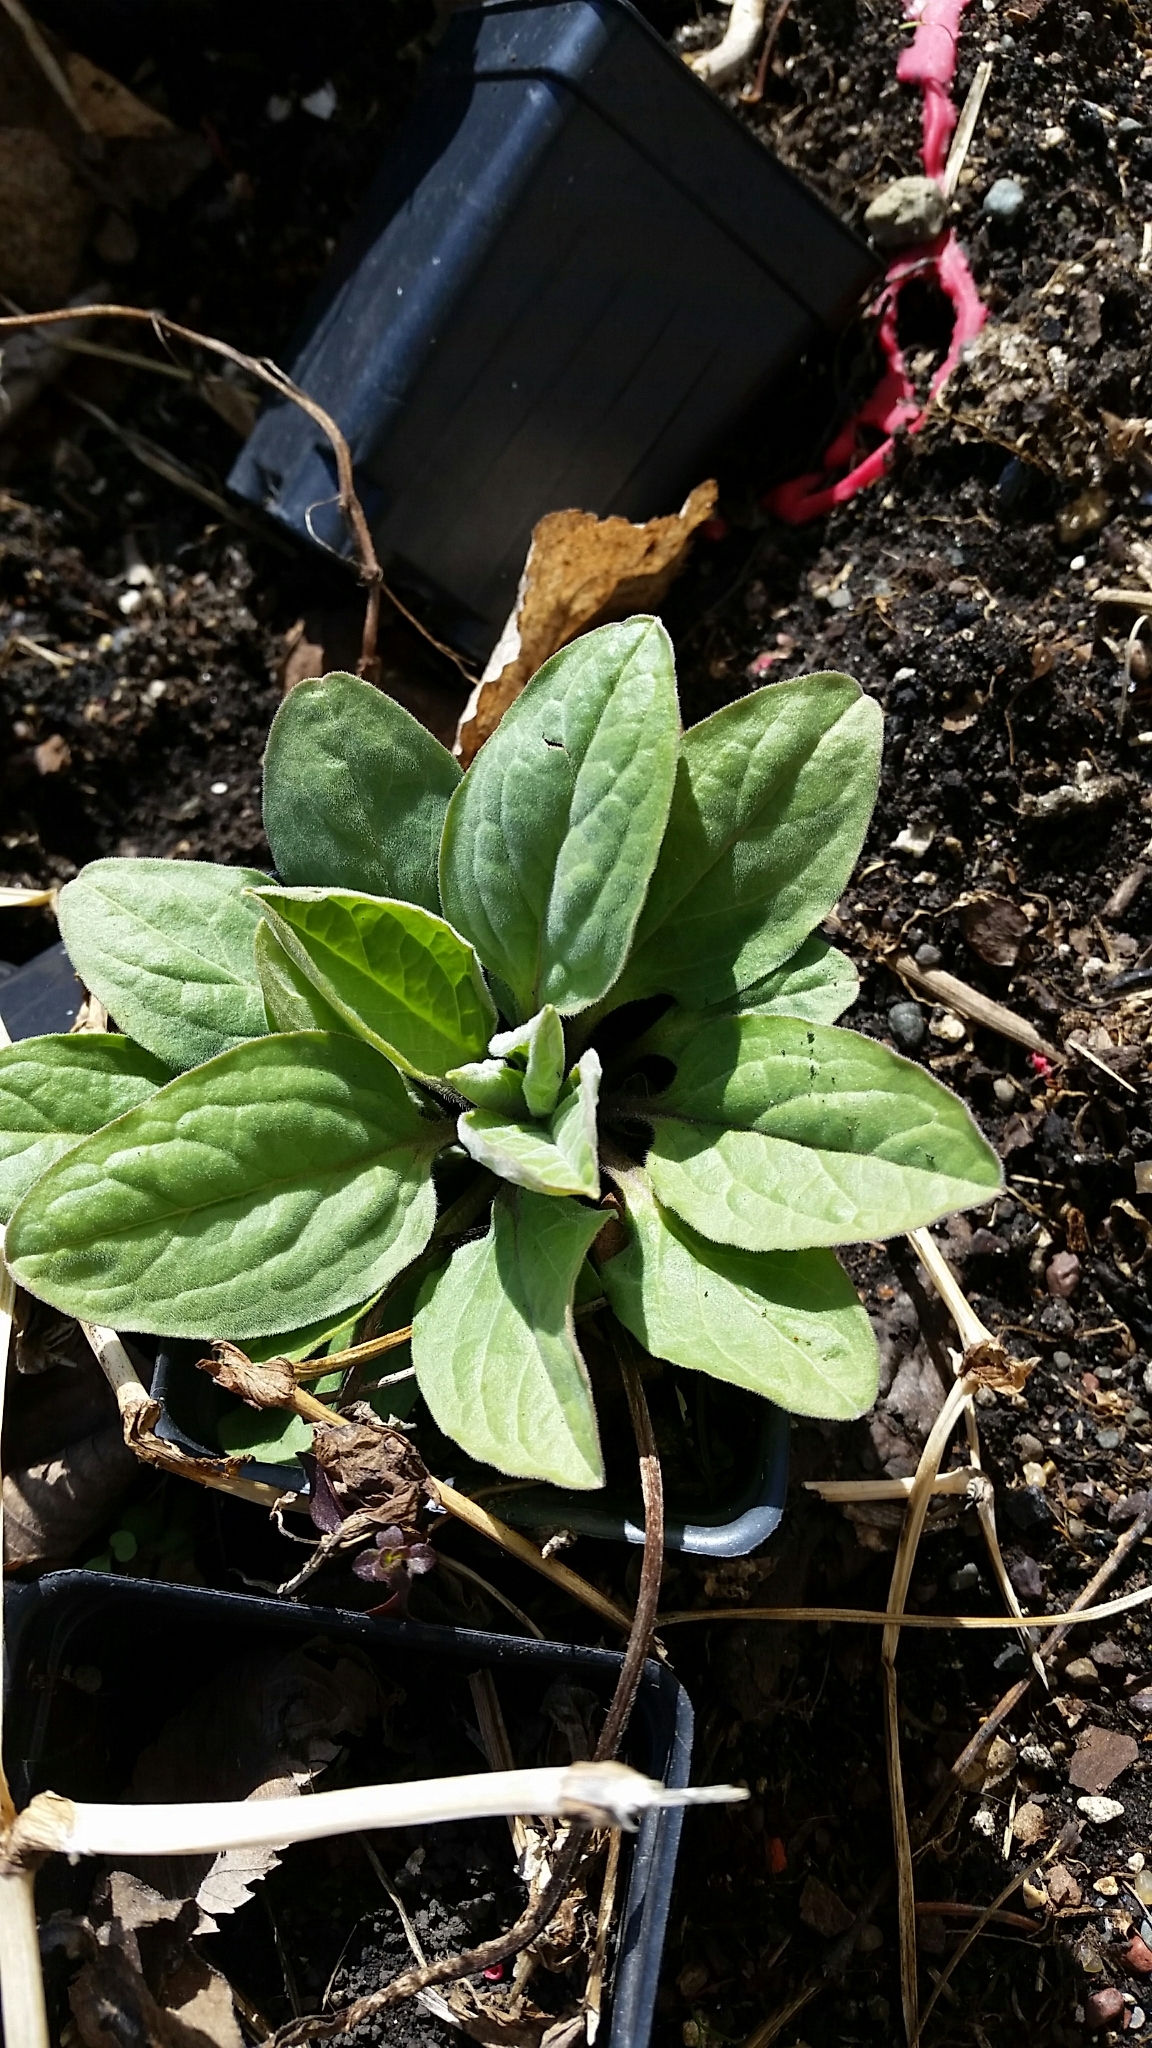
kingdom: Plantae
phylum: Tracheophyta
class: Magnoliopsida
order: Boraginales
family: Boraginaceae
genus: Hackelia
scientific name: Hackelia virginiana
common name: Beggar's-lice
